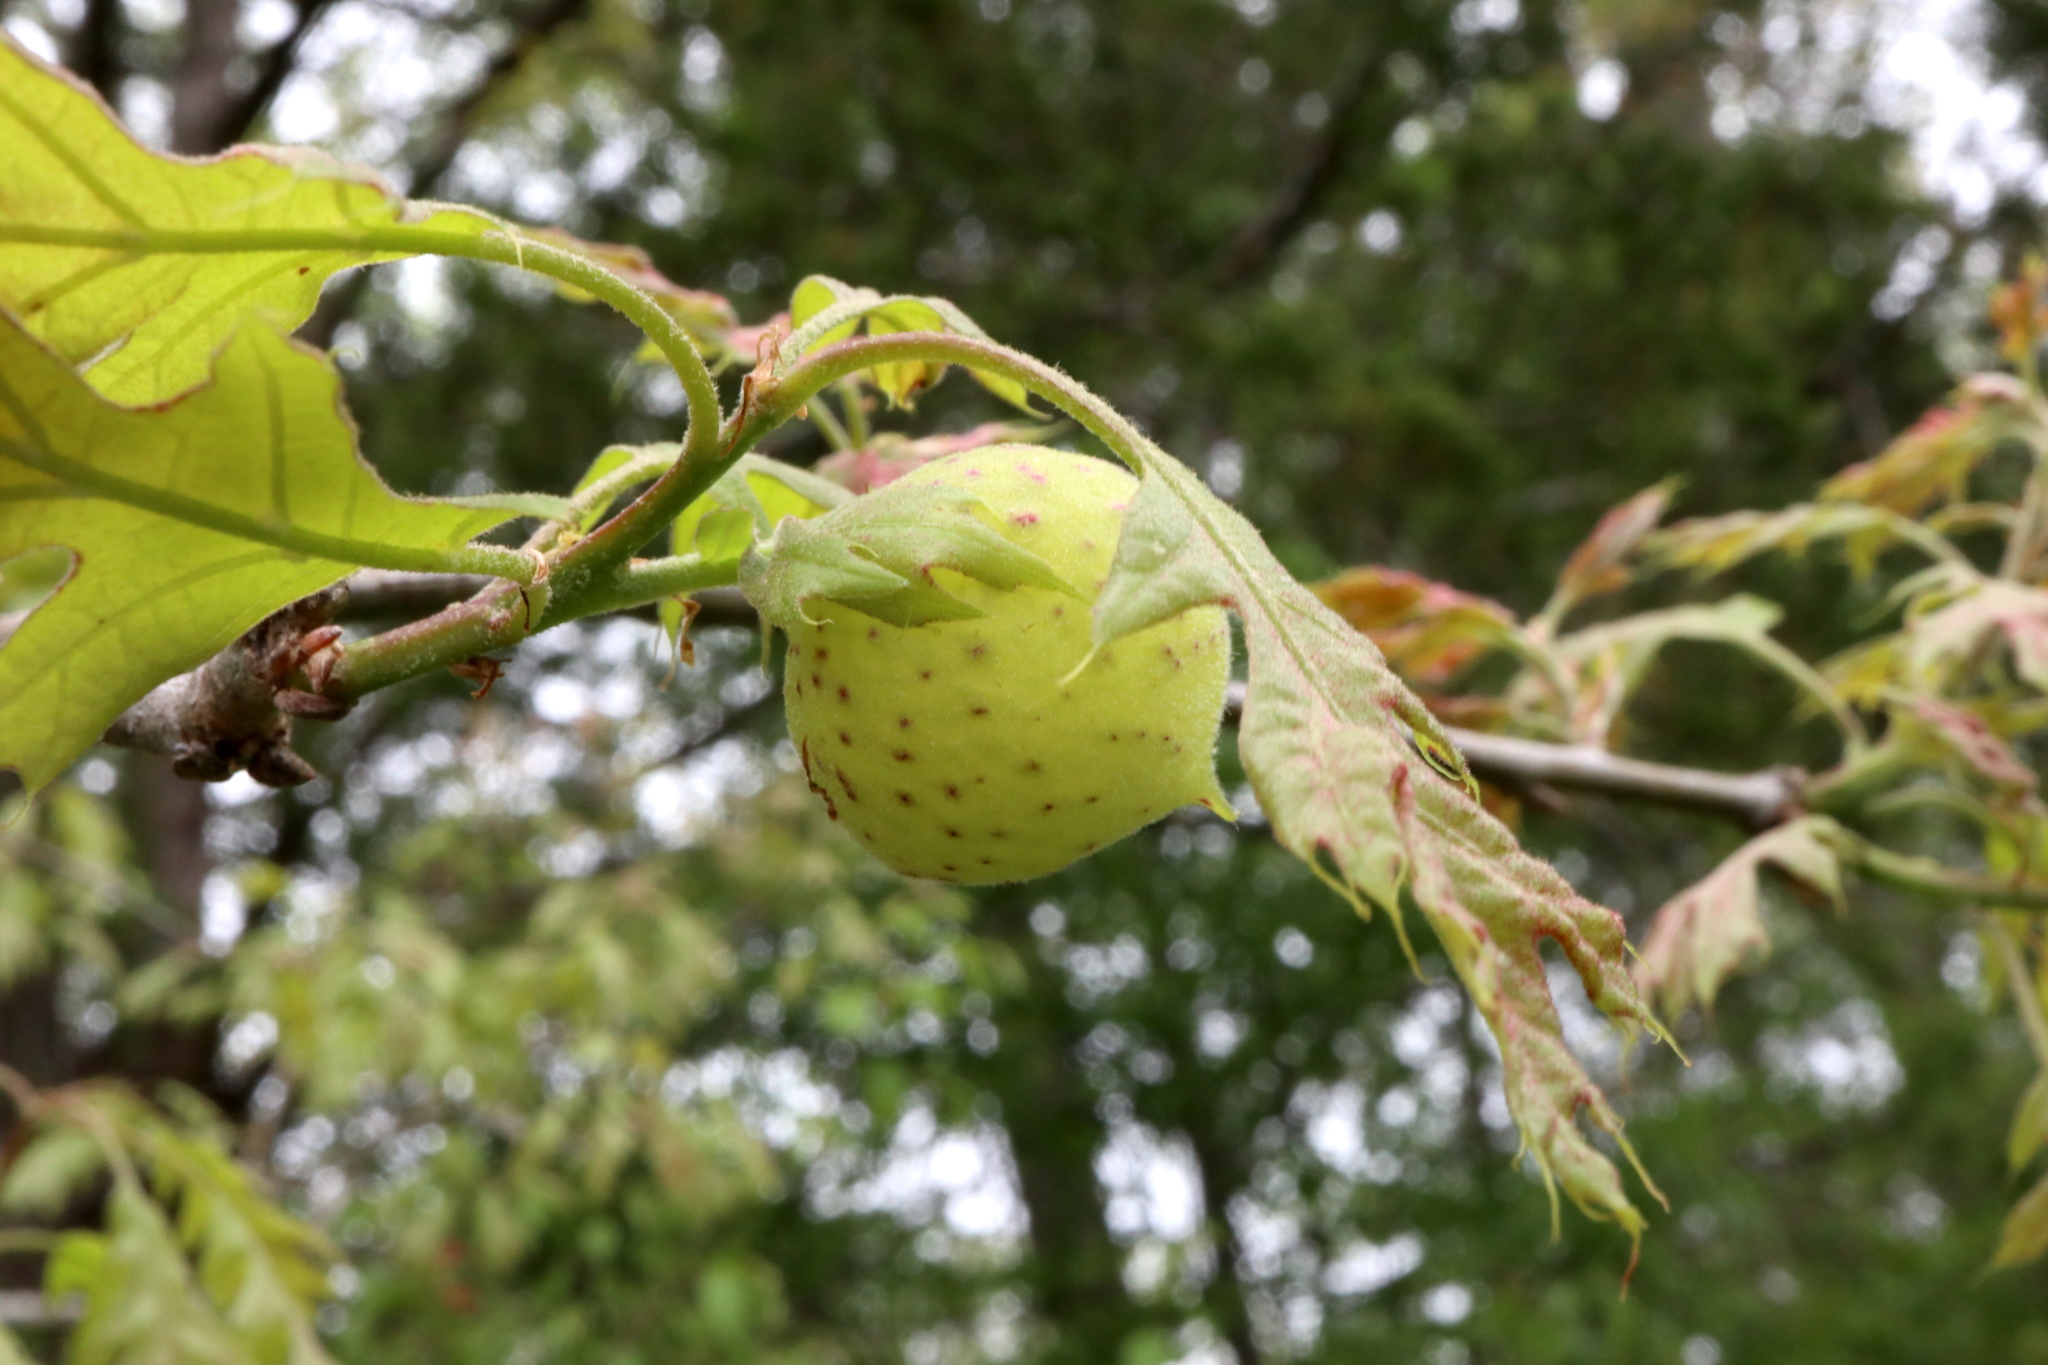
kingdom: Animalia
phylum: Arthropoda
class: Insecta
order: Hymenoptera
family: Cynipidae
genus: Amphibolips
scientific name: Amphibolips
